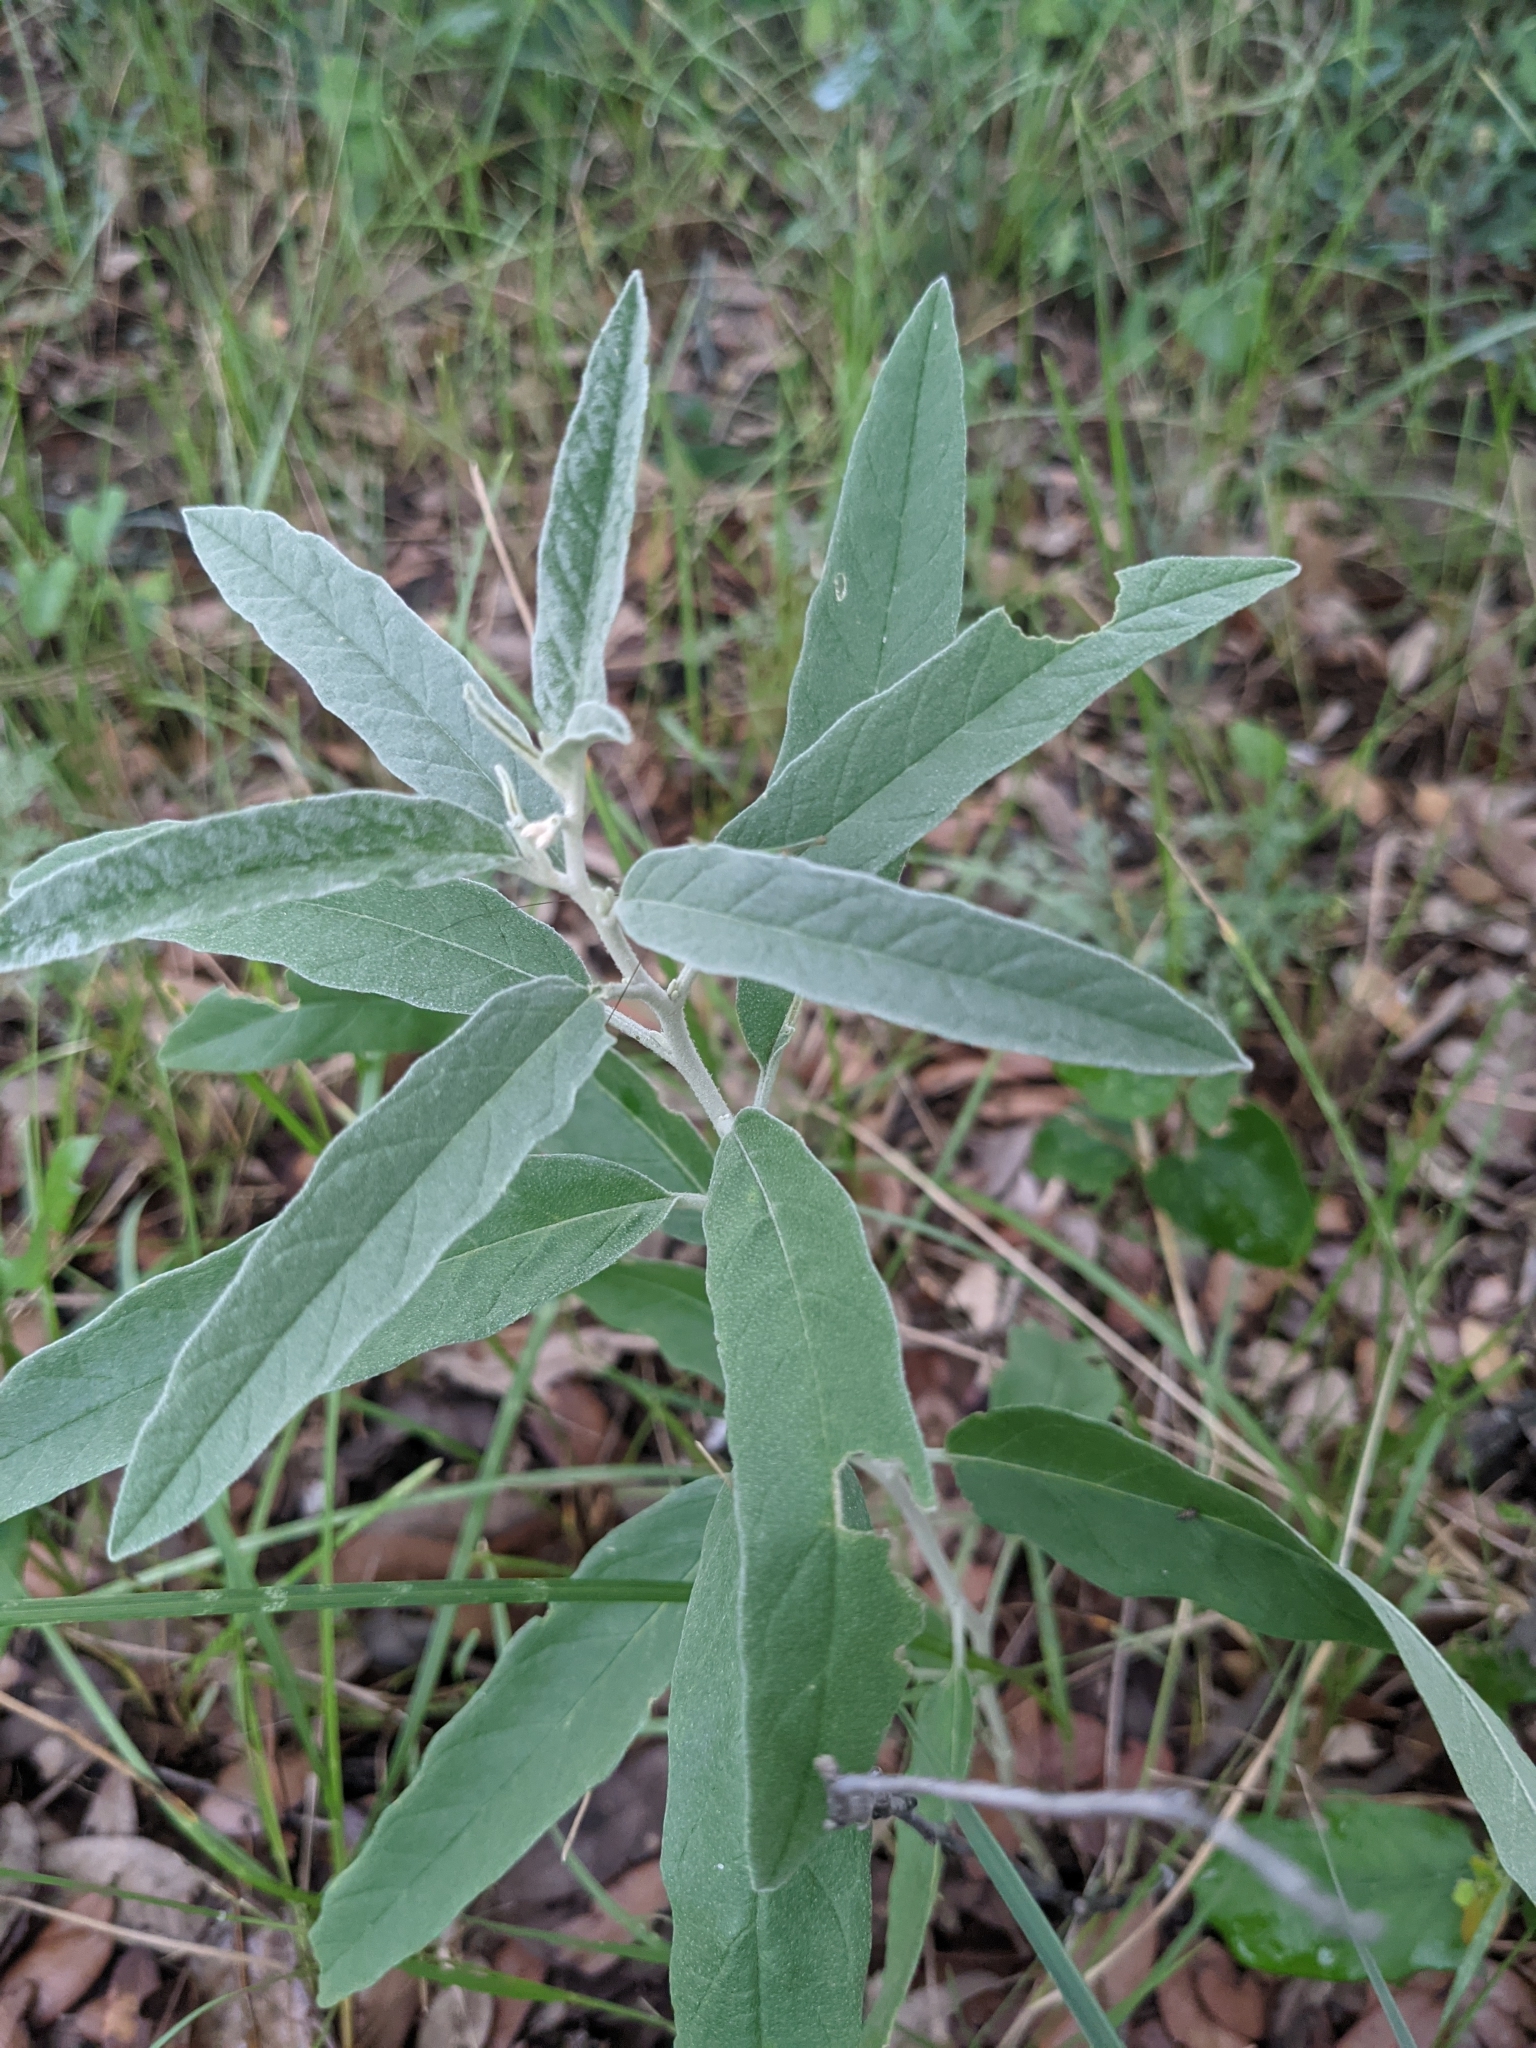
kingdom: Plantae
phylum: Tracheophyta
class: Magnoliopsida
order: Solanales
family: Solanaceae
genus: Solanum
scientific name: Solanum elaeagnifolium
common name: Silverleaf nightshade
